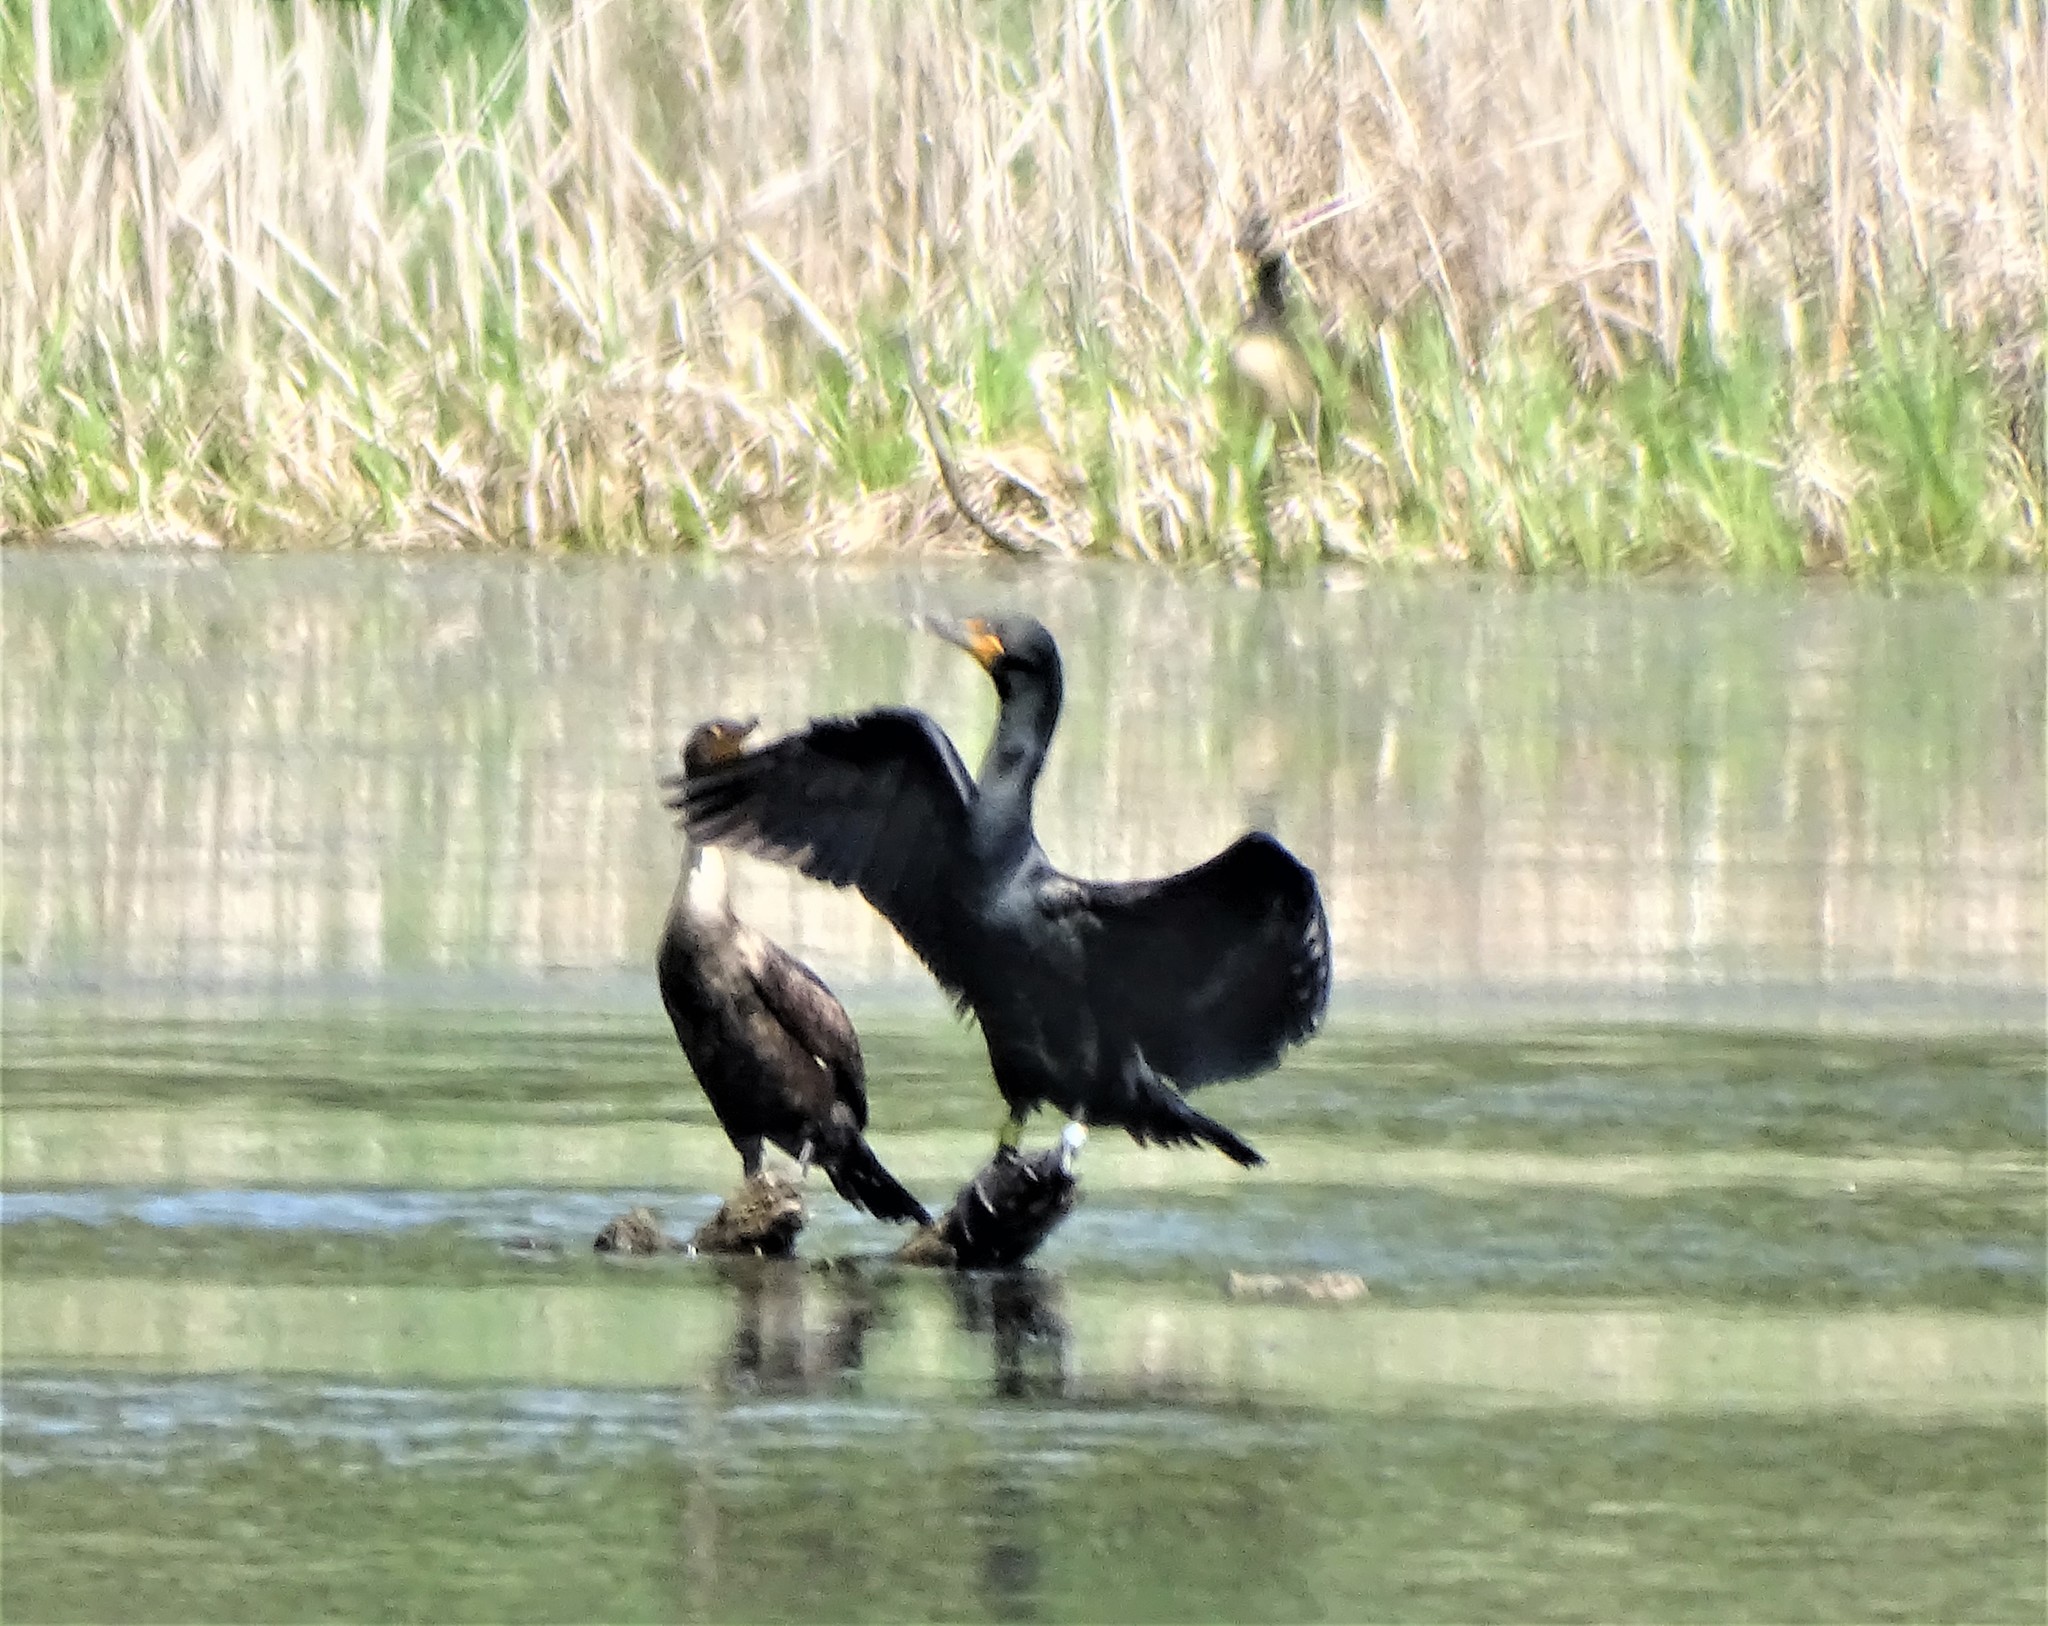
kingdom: Animalia
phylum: Chordata
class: Aves
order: Suliformes
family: Phalacrocoracidae
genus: Phalacrocorax
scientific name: Phalacrocorax auritus
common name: Double-crested cormorant
